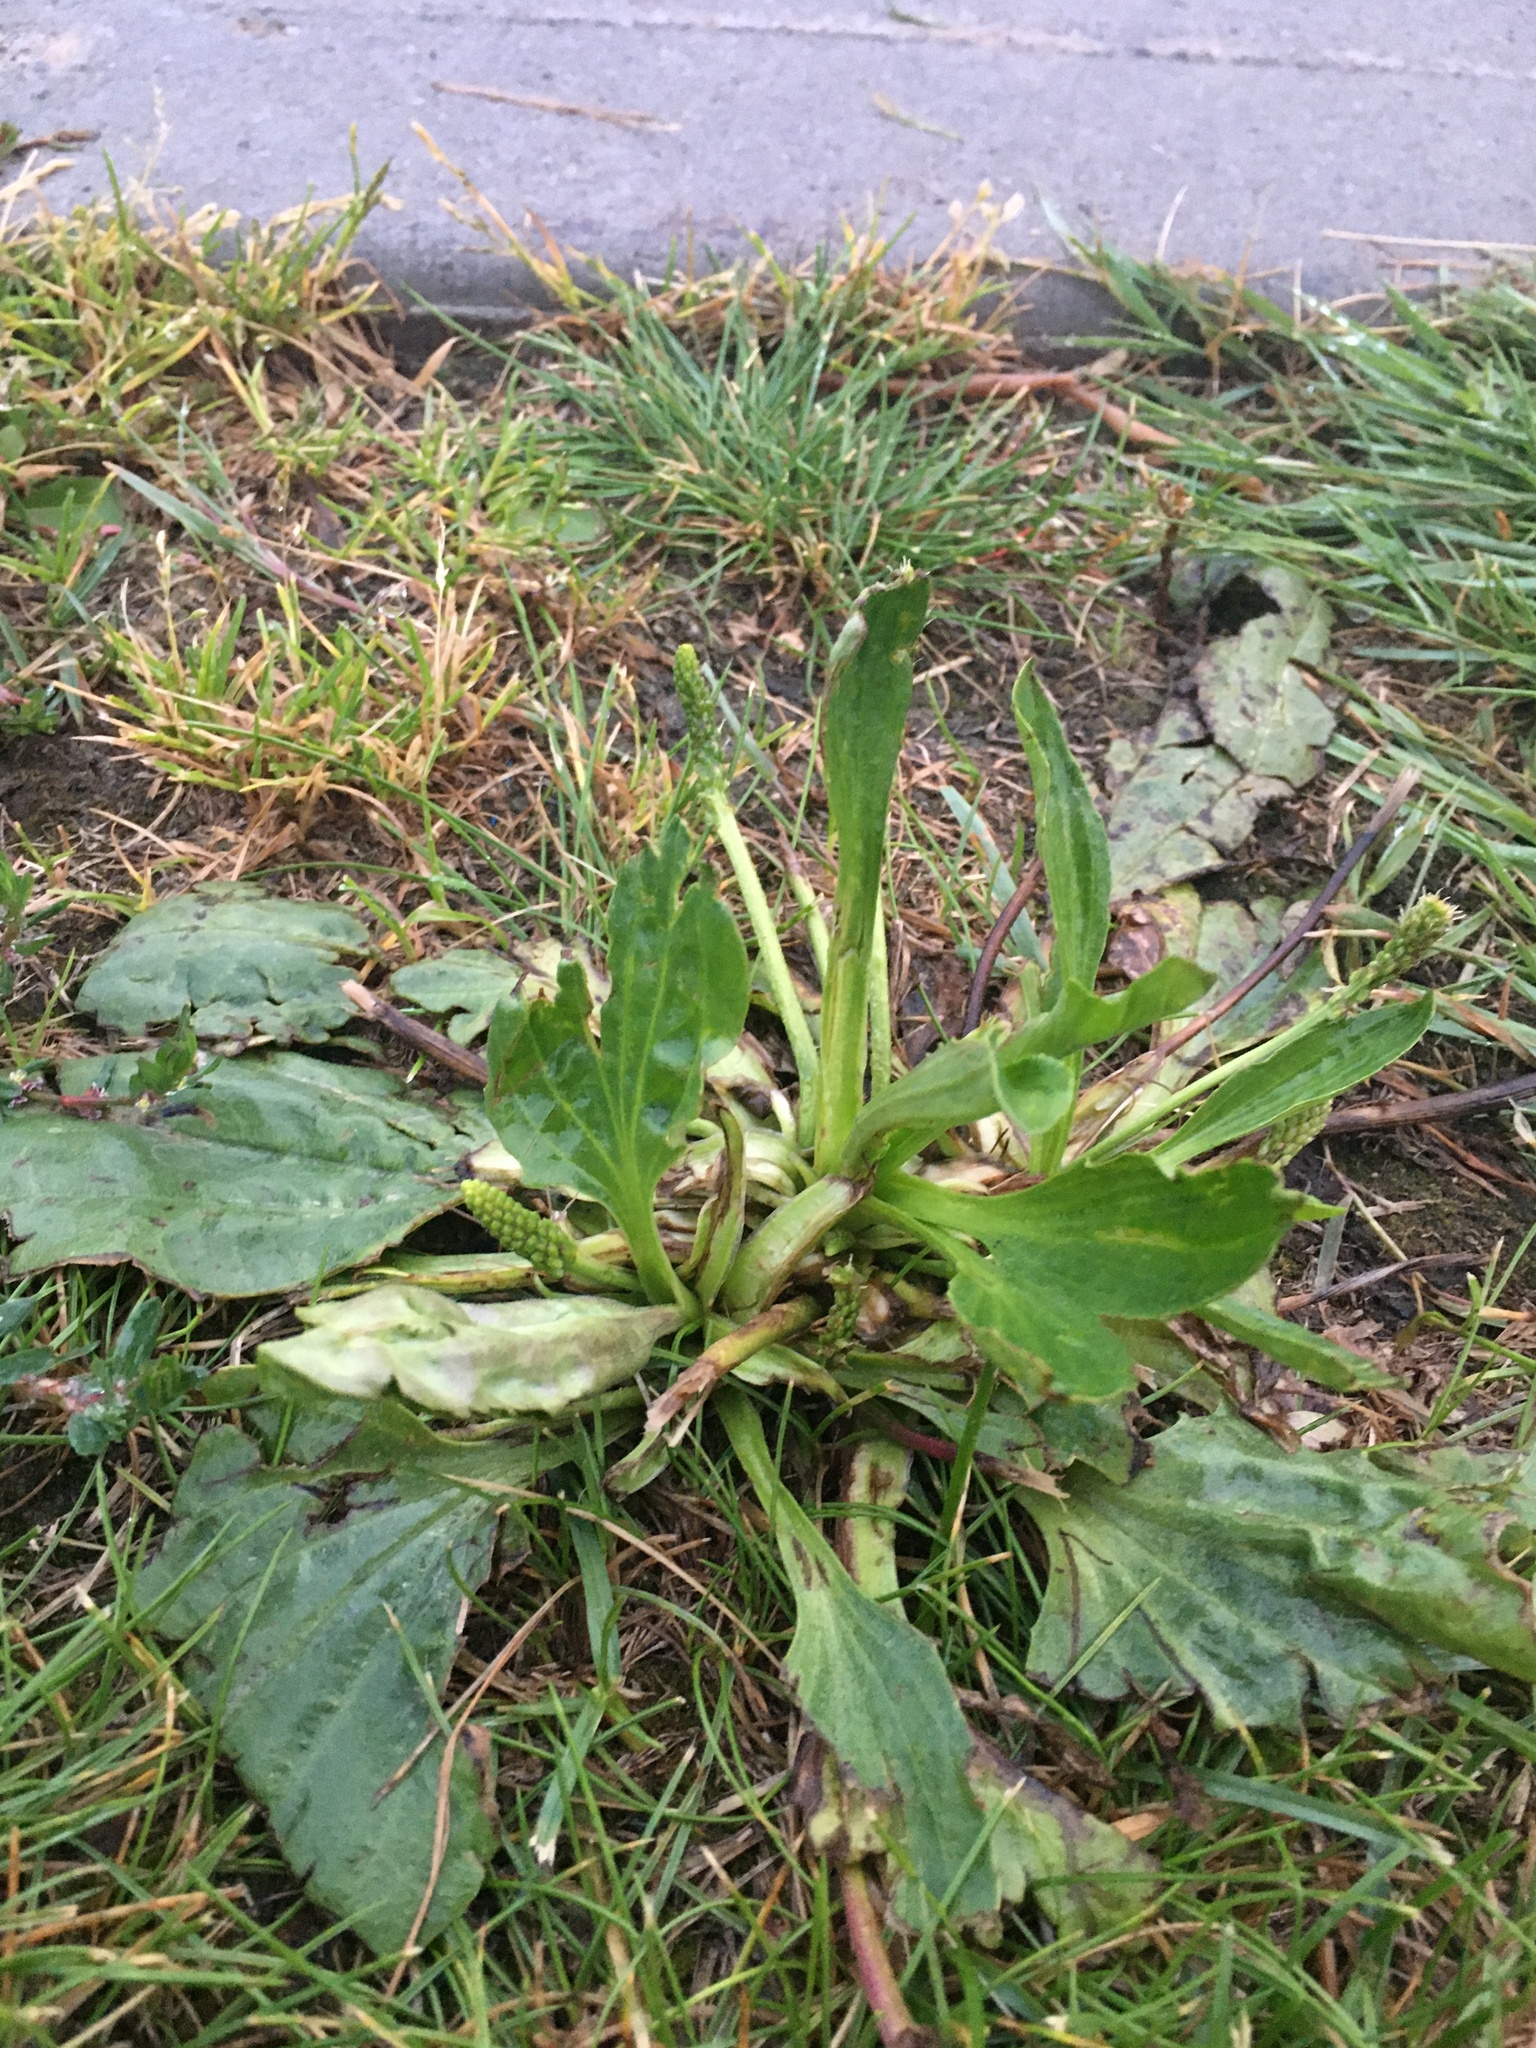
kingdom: Plantae
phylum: Tracheophyta
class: Magnoliopsida
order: Lamiales
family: Plantaginaceae
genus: Plantago
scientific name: Plantago major
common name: Common plantain
